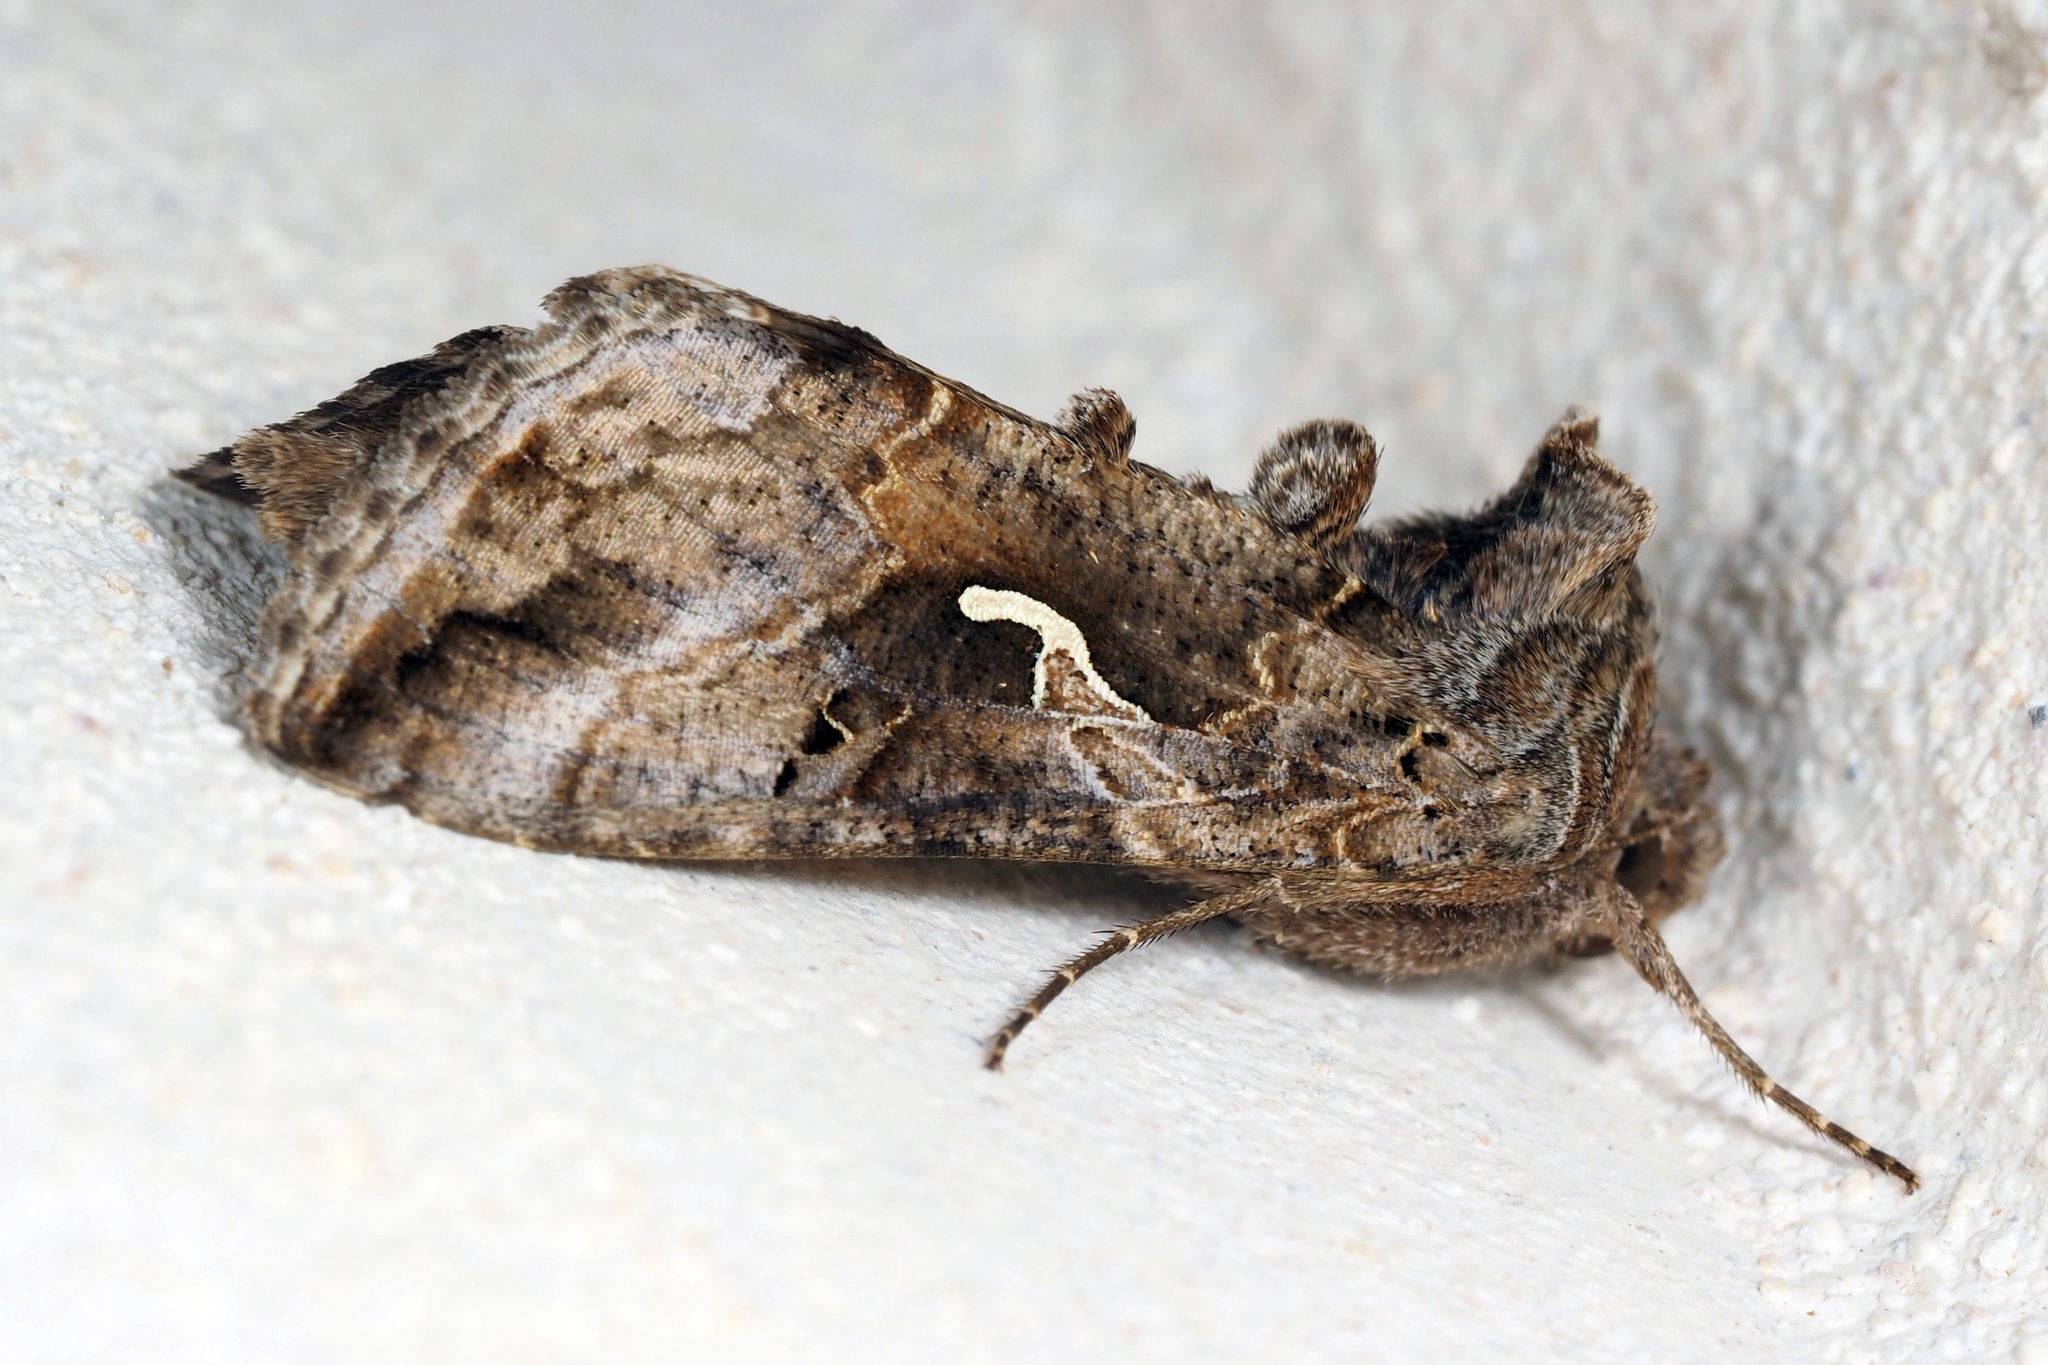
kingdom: Animalia
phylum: Arthropoda
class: Insecta
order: Lepidoptera
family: Noctuidae
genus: Autographa
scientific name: Autographa gamma
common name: Silver y
